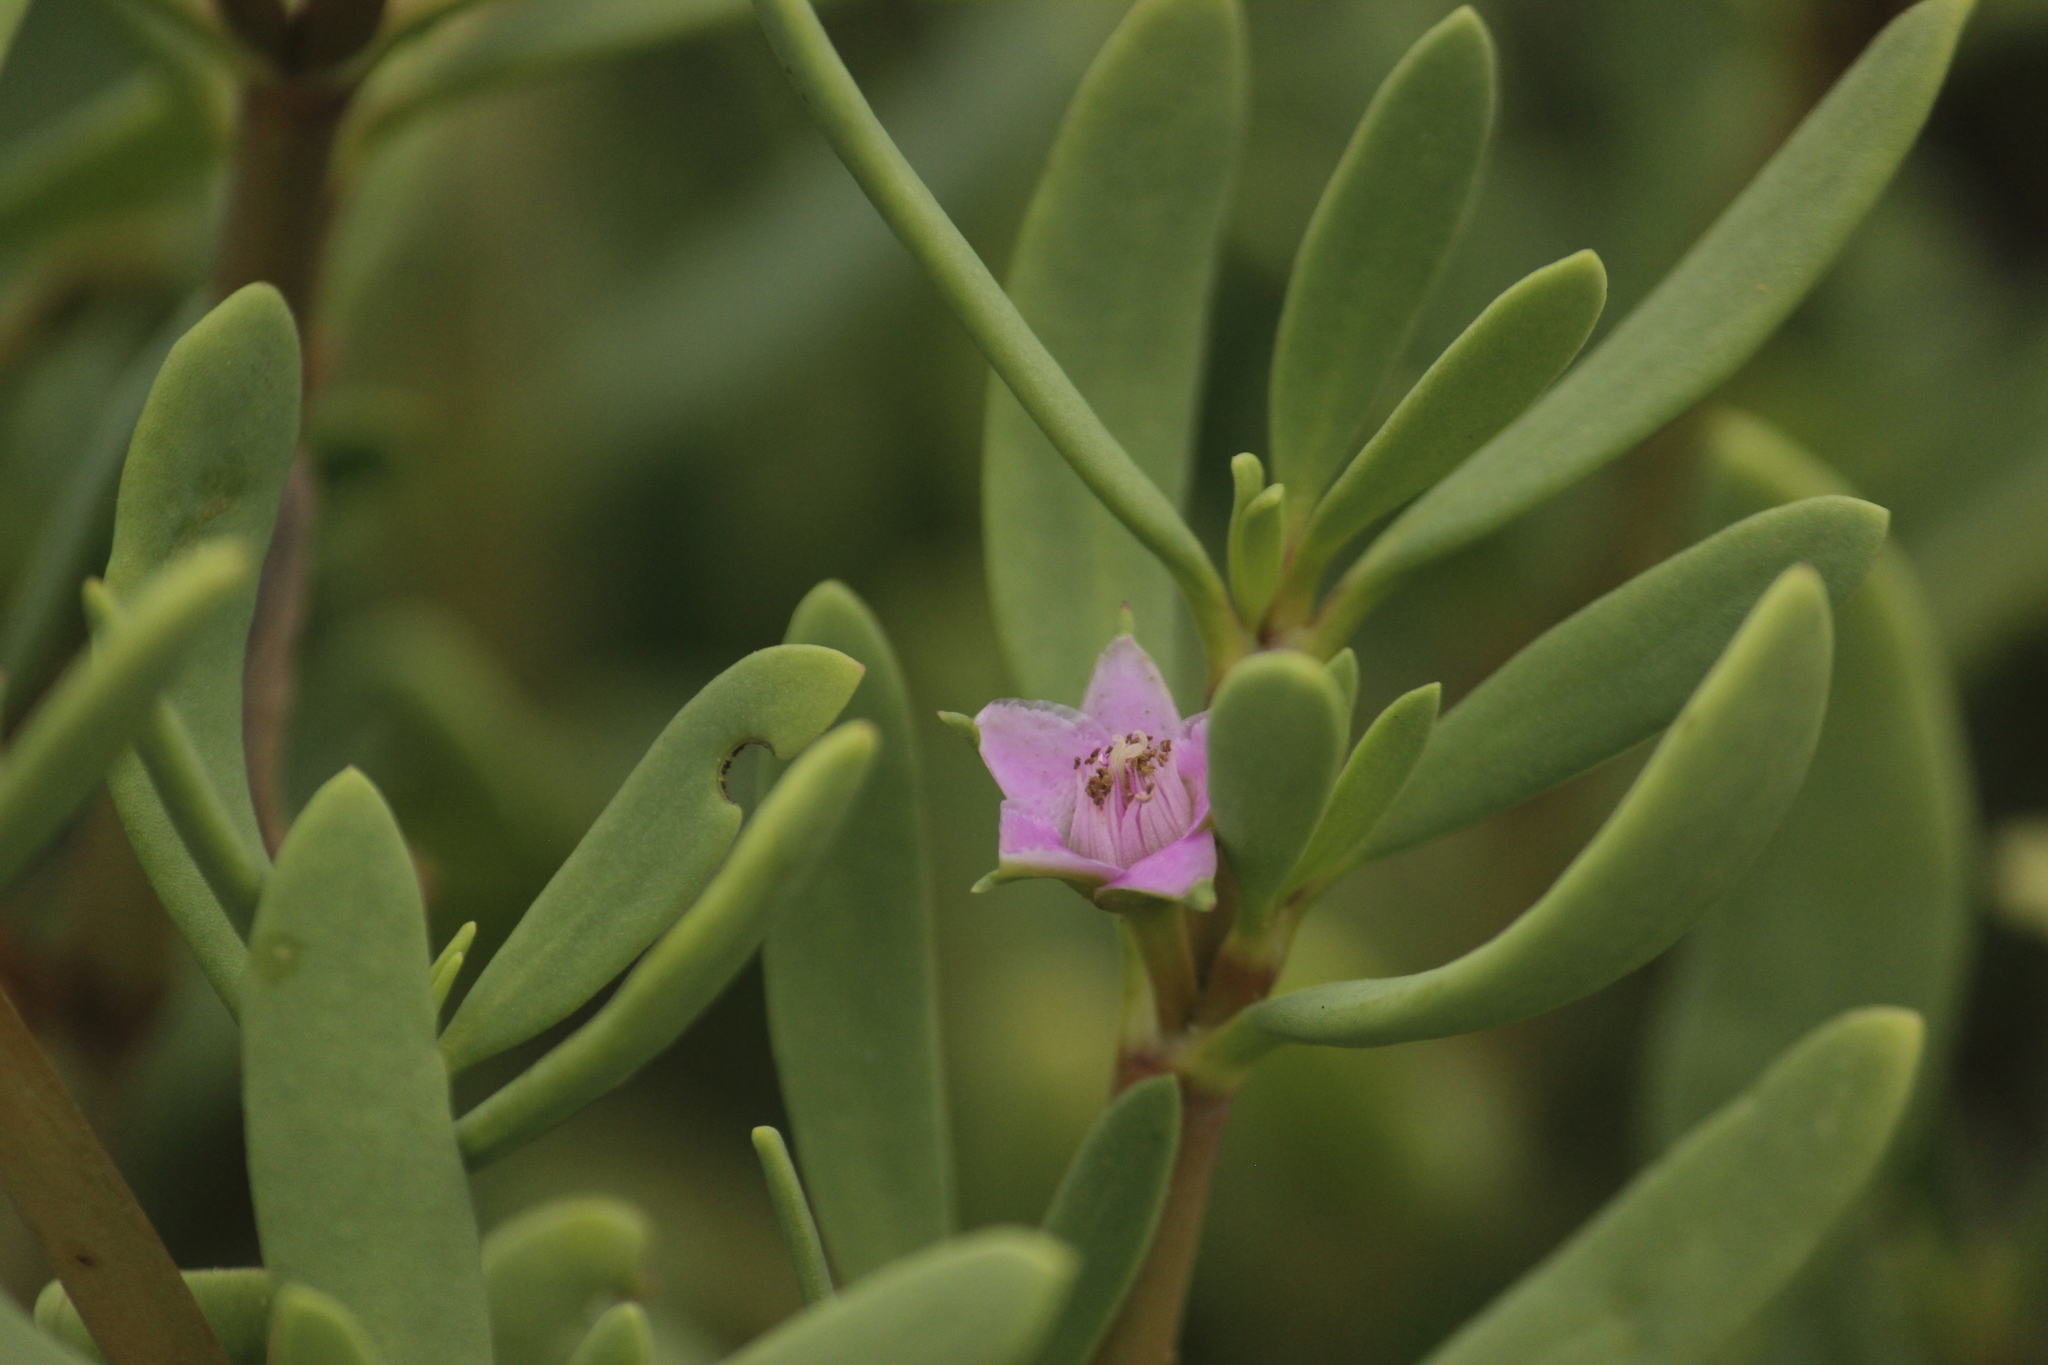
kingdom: Plantae
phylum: Tracheophyta
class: Magnoliopsida
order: Caryophyllales
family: Aizoaceae
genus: Sesuvium
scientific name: Sesuvium portulacastrum
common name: Sea-purslane
